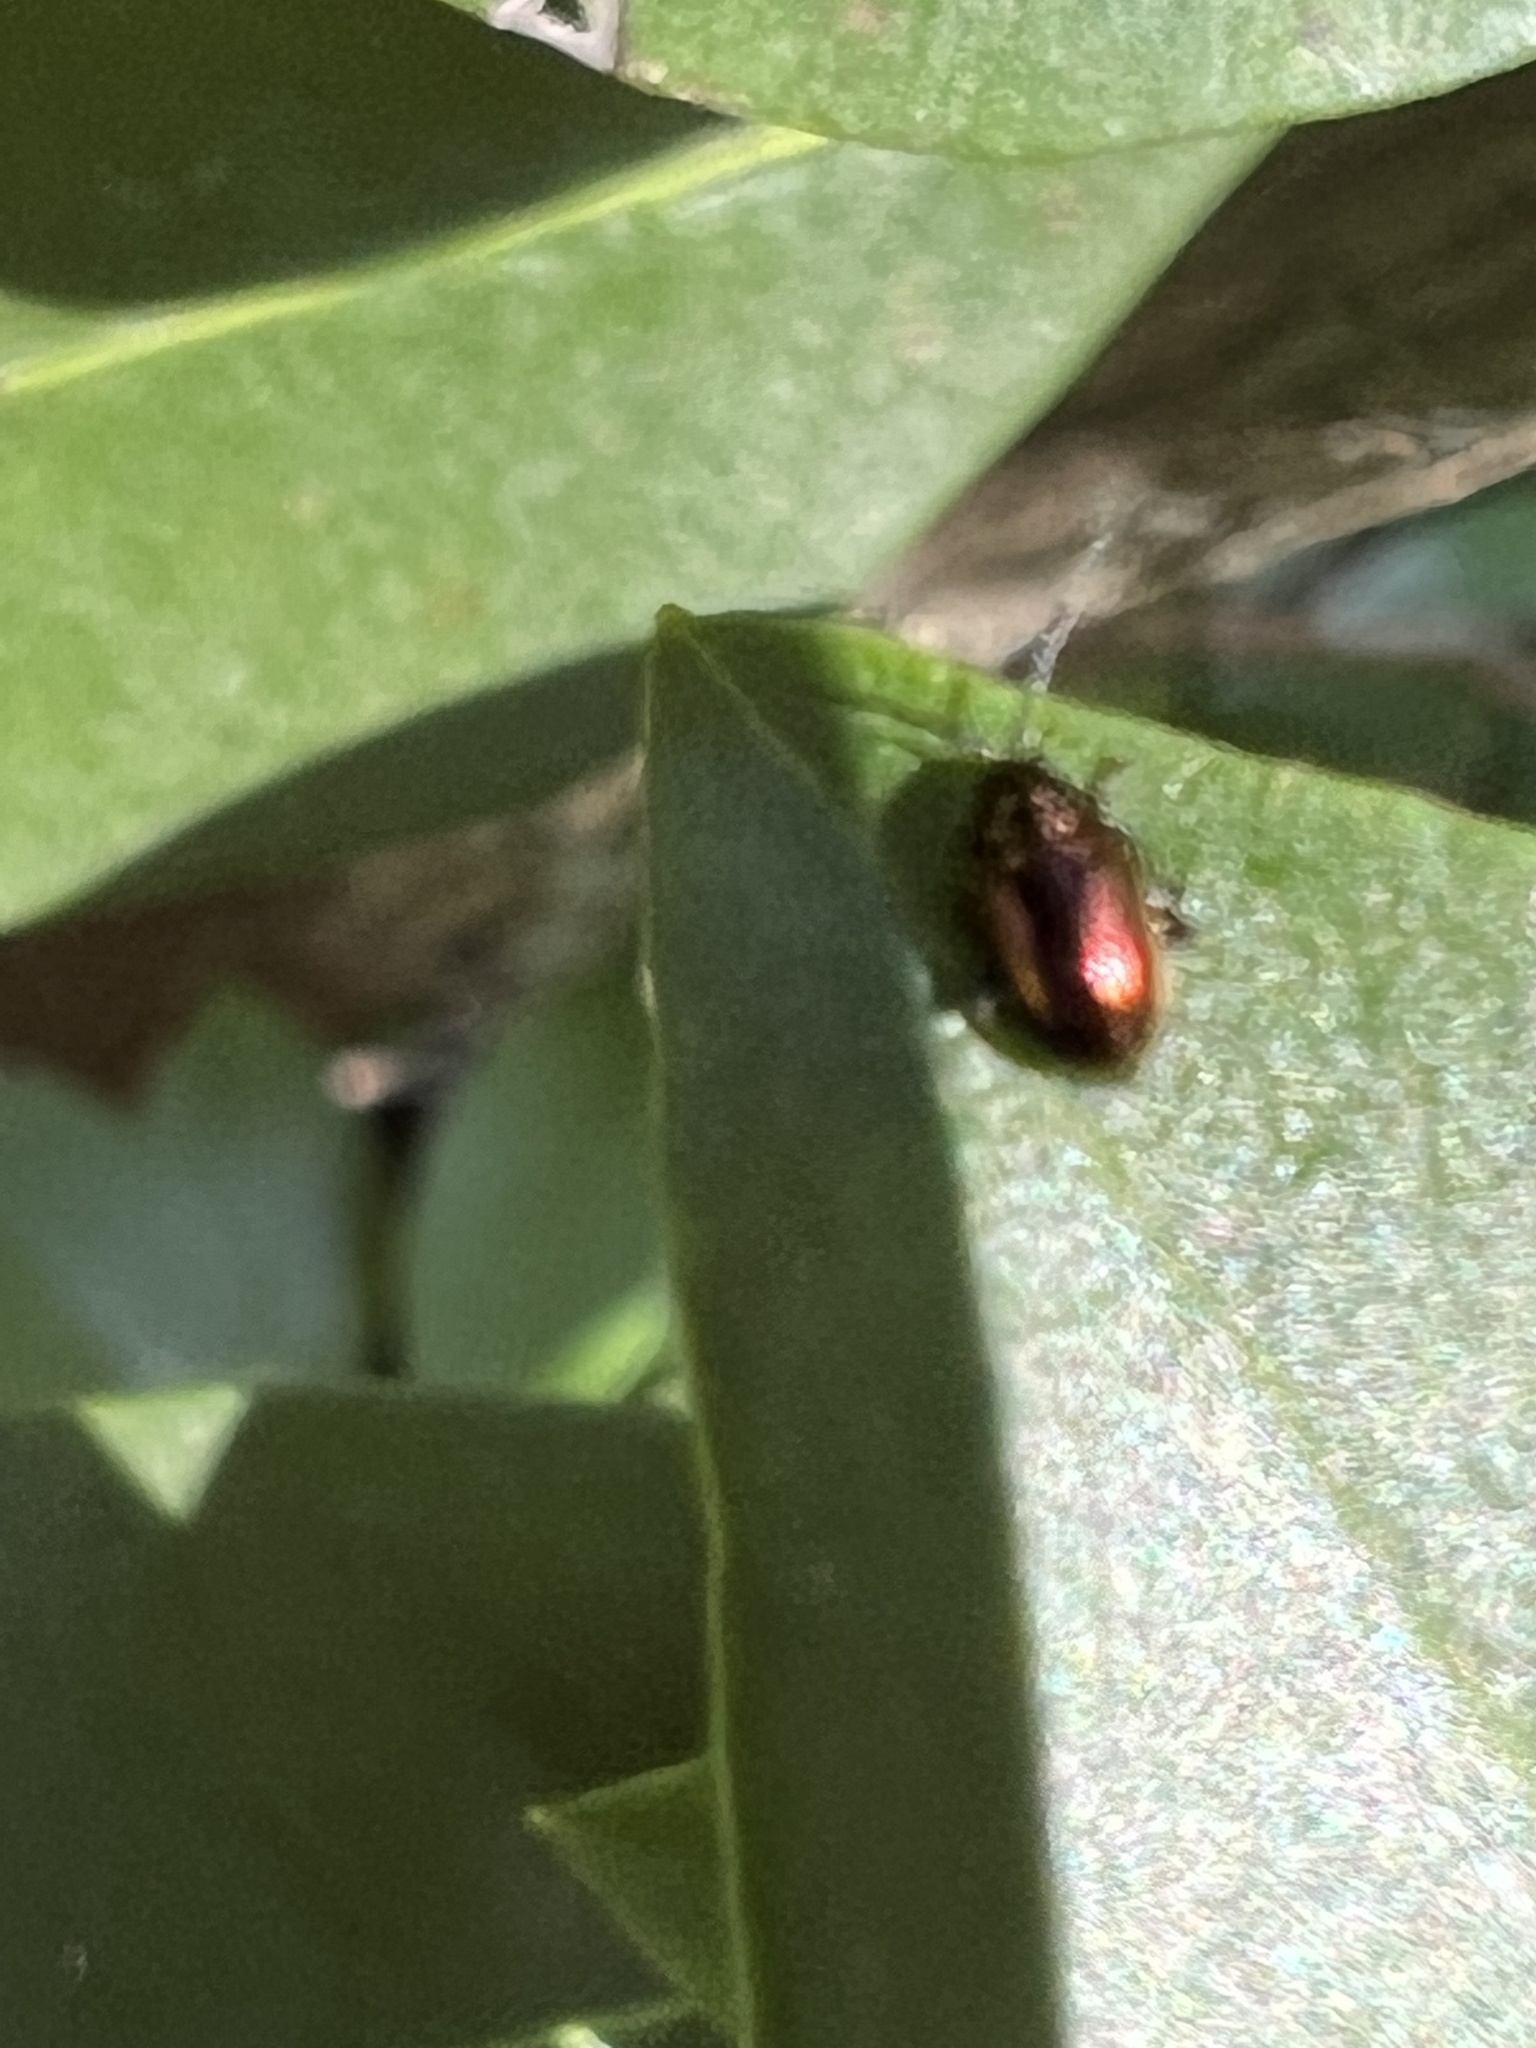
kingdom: Animalia
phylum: Arthropoda
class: Insecta
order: Coleoptera
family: Chrysomelidae
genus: Altica
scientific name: Altica kalmiae
